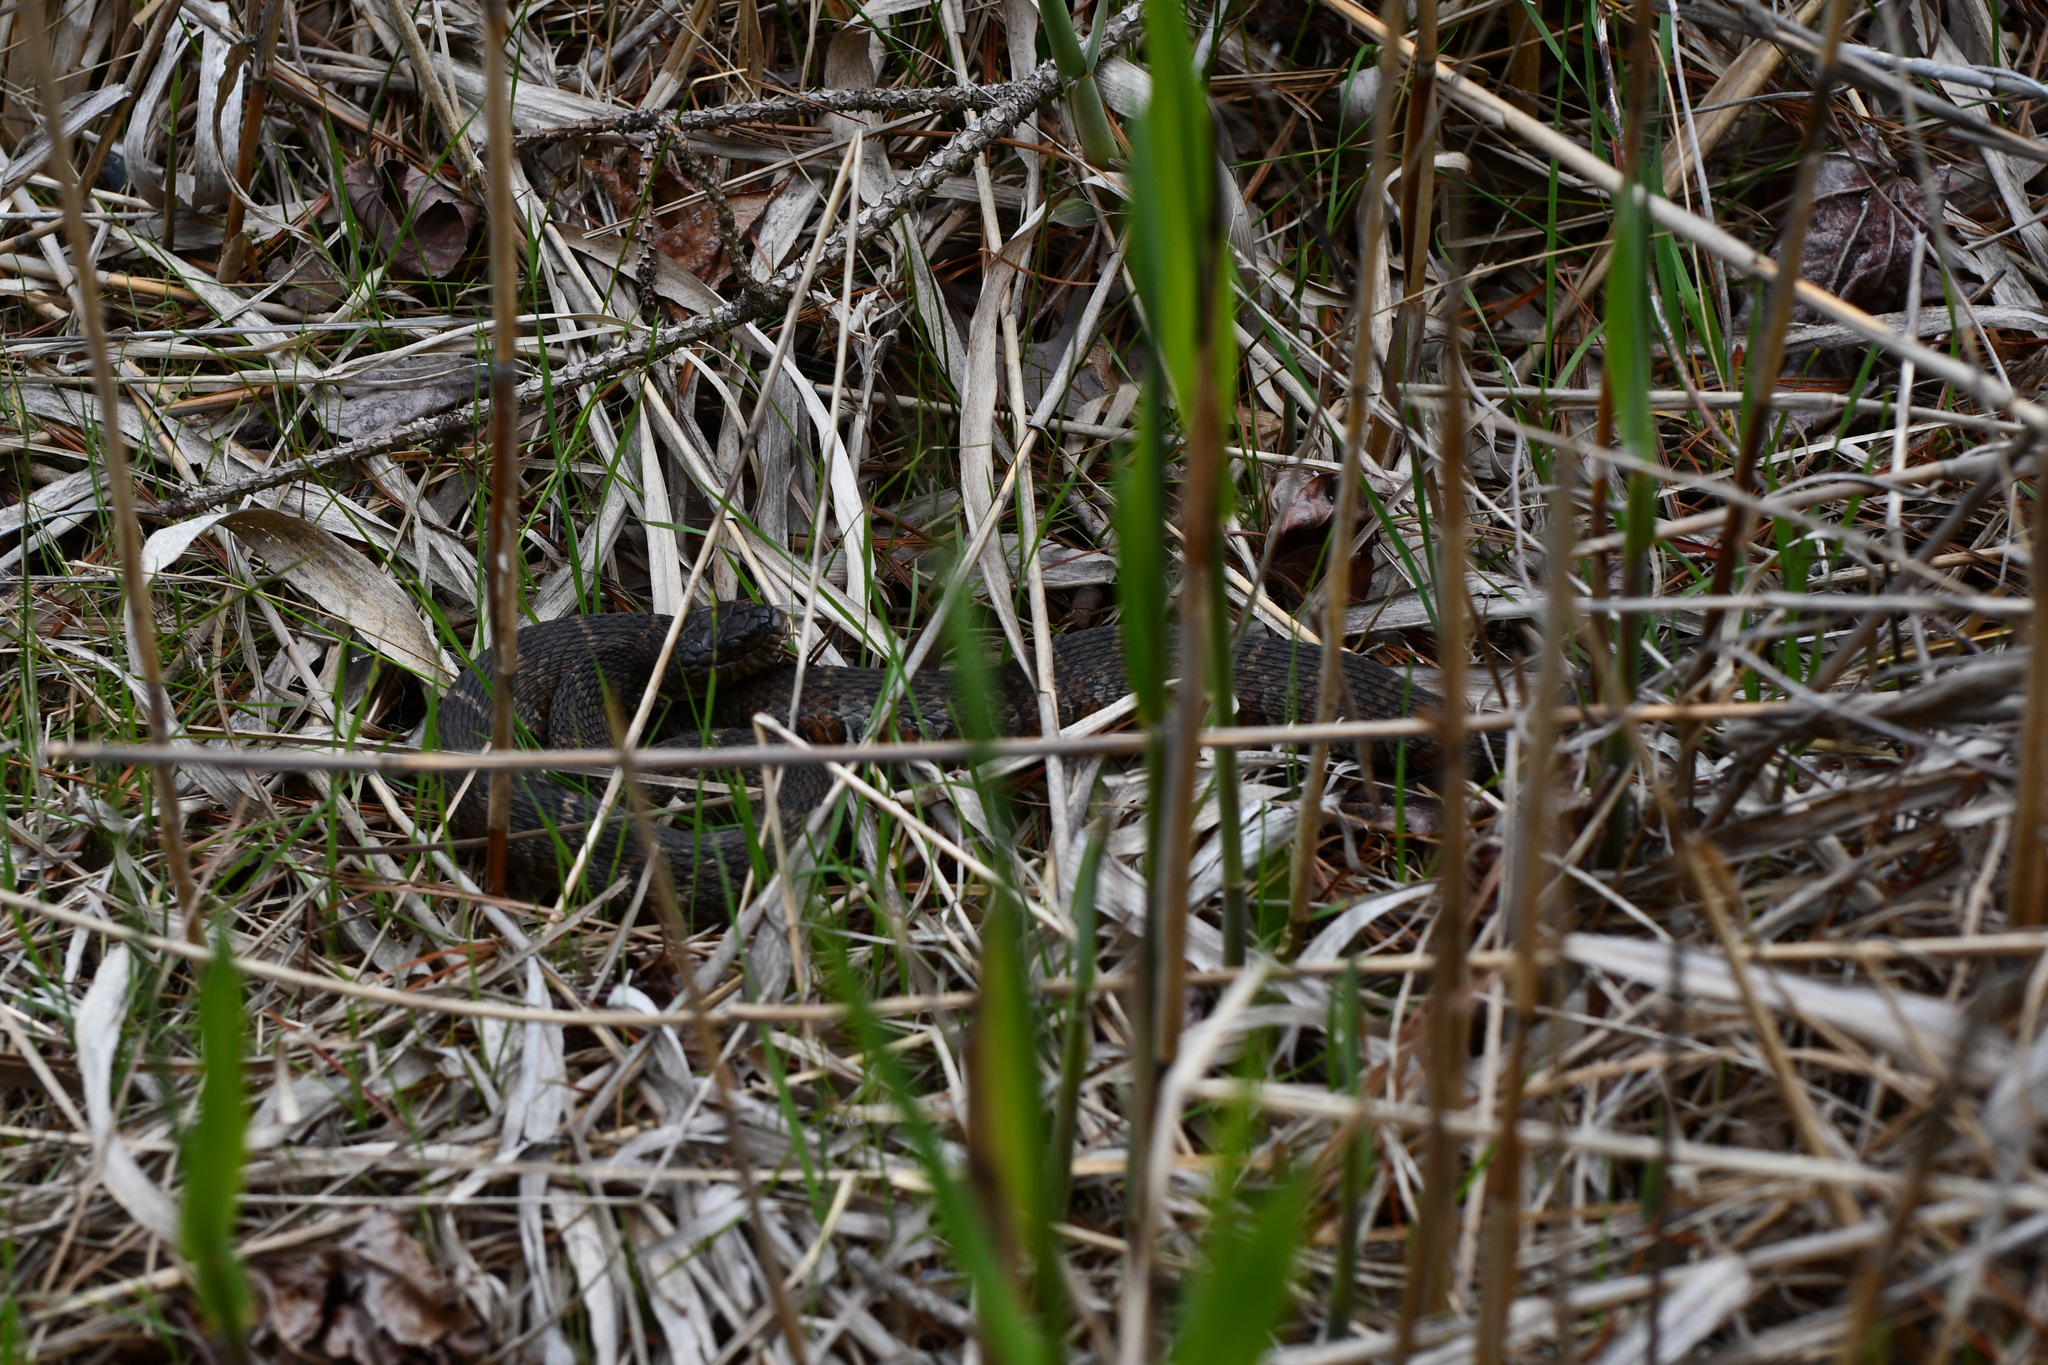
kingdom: Animalia
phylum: Chordata
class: Squamata
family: Colubridae
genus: Nerodia
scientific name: Nerodia sipedon
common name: Northern water snake
